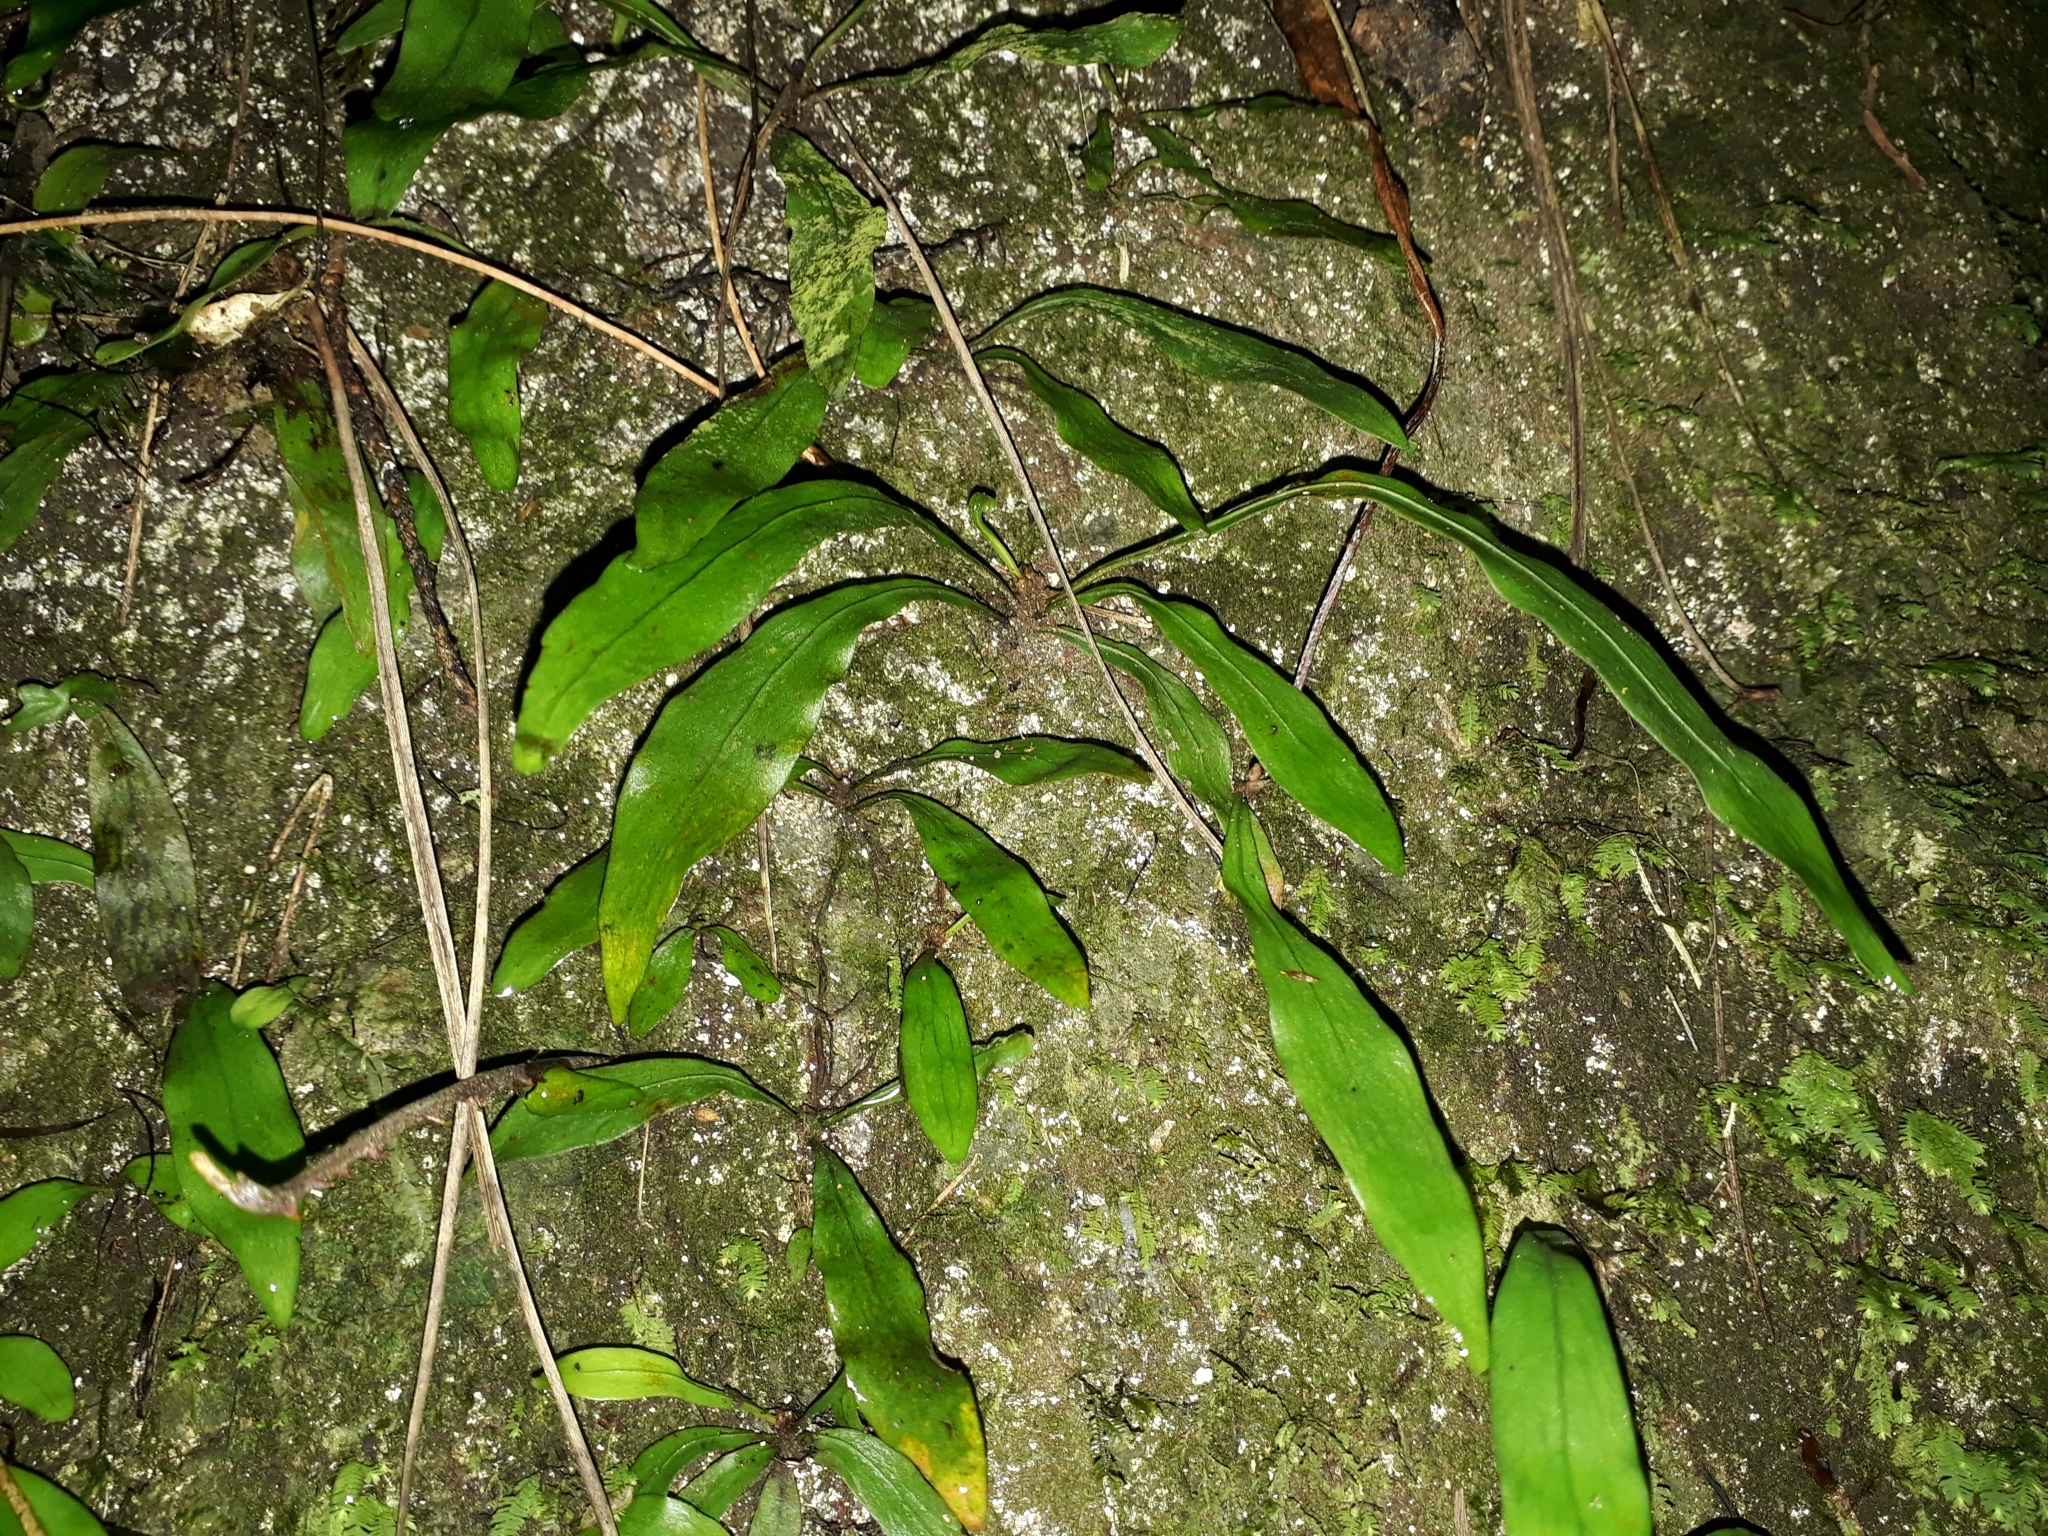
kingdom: Plantae
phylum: Tracheophyta
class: Polypodiopsida
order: Polypodiales
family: Polypodiaceae
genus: Loxogramme
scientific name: Loxogramme dictyopteris
